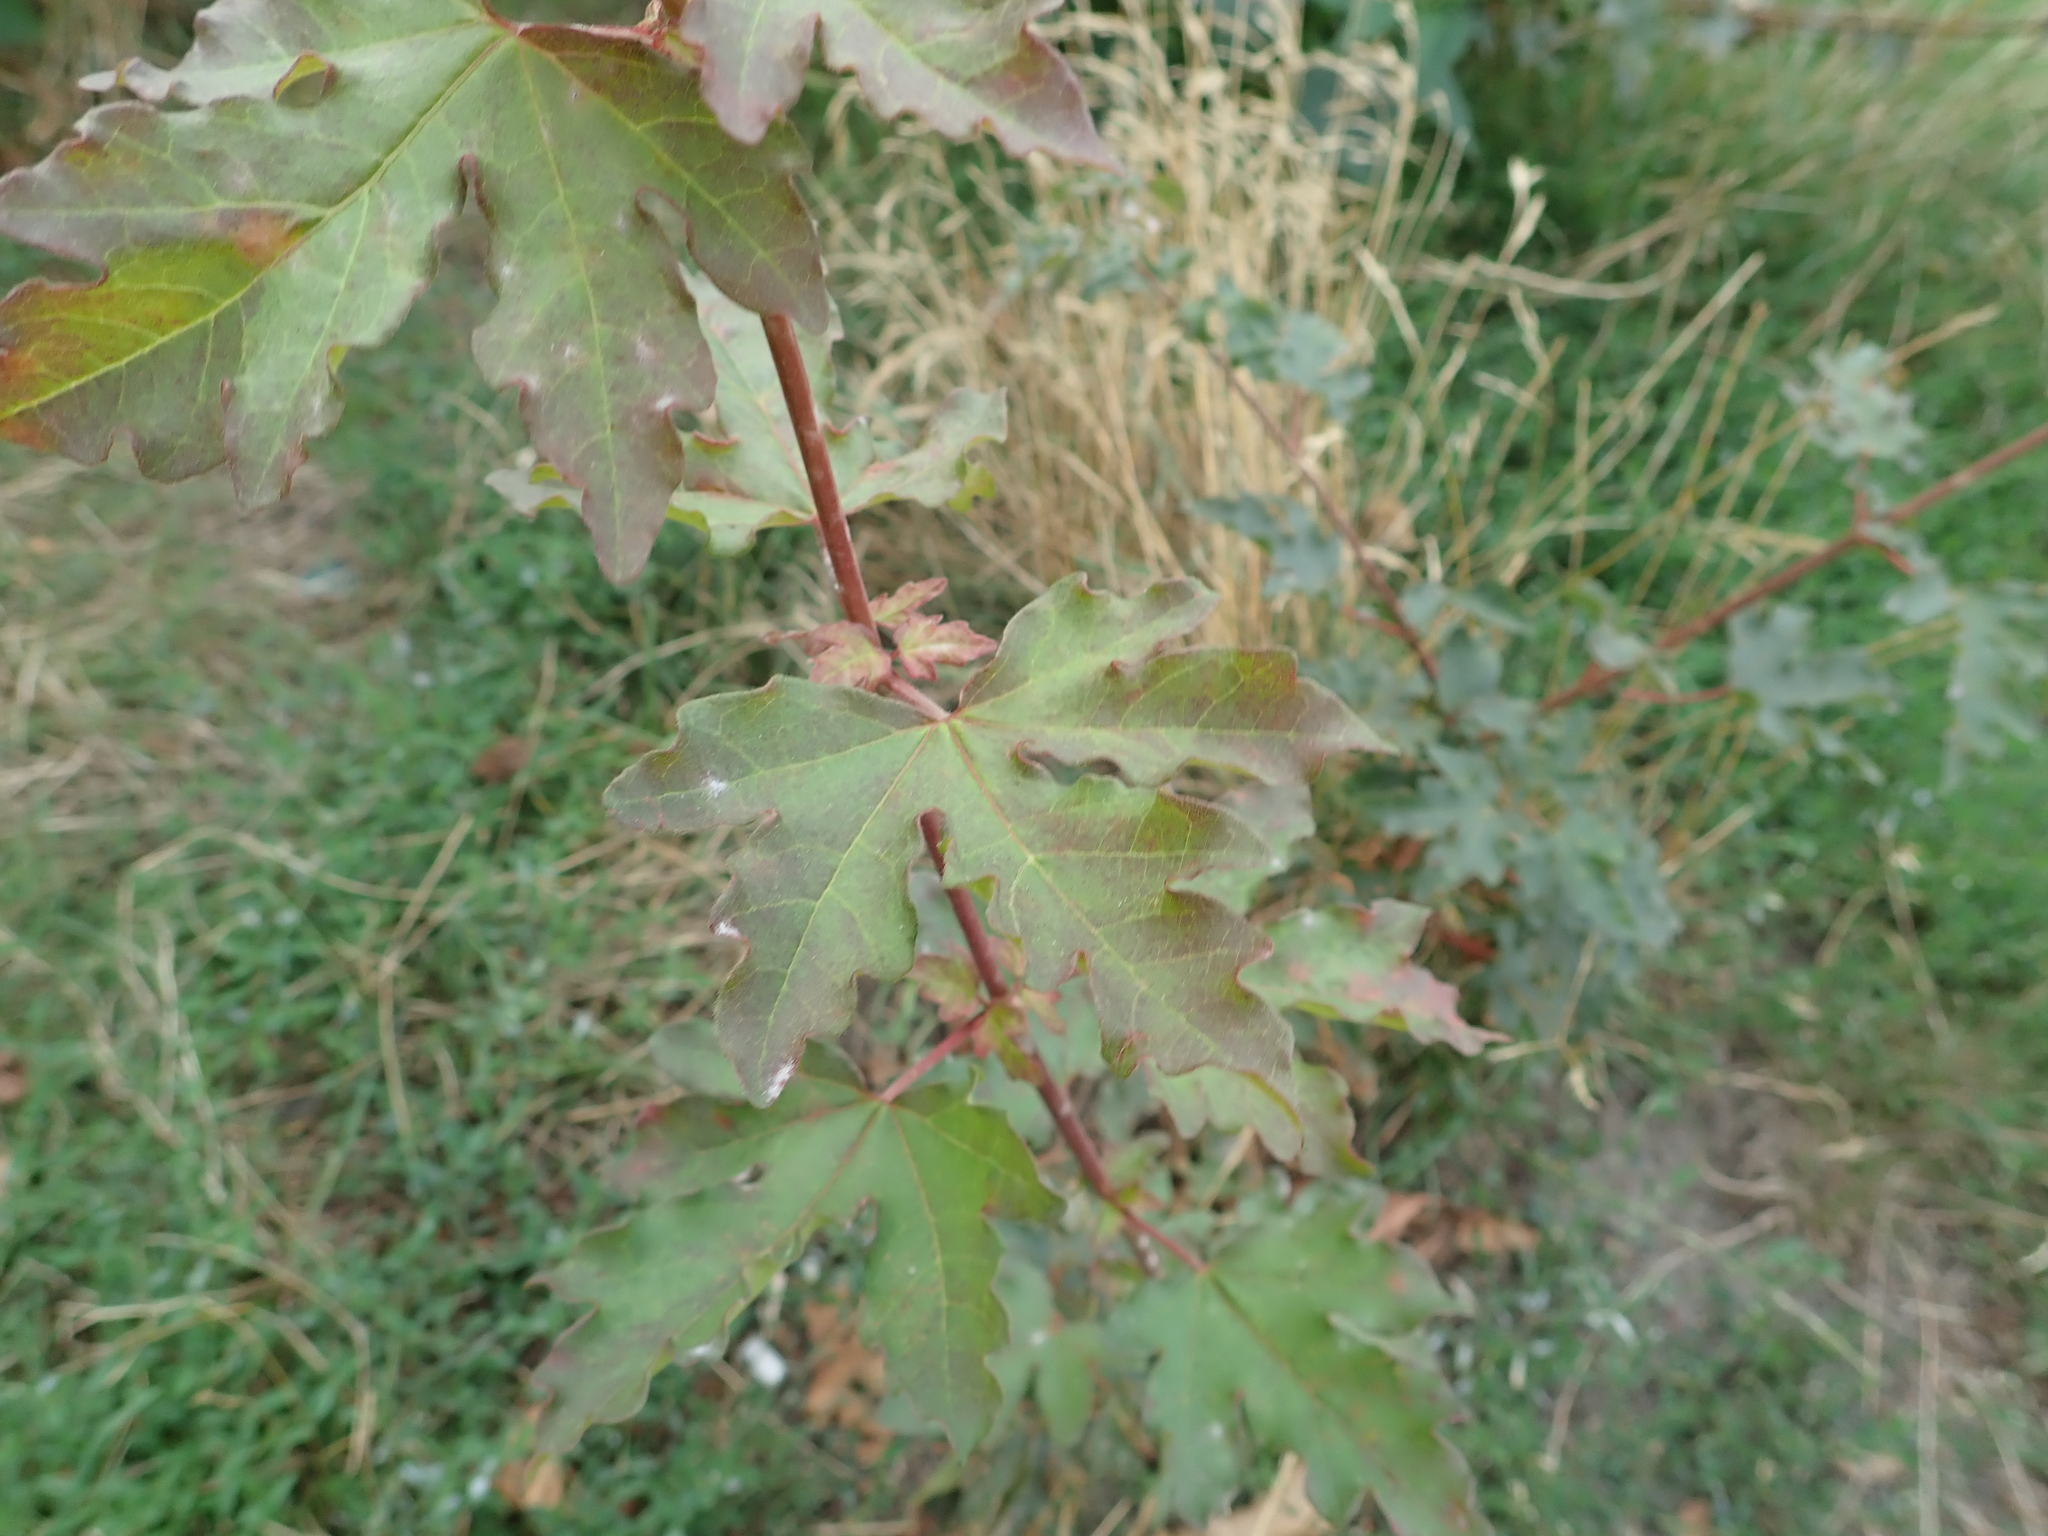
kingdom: Plantae
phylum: Tracheophyta
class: Magnoliopsida
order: Sapindales
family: Sapindaceae
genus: Acer
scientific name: Acer campestre
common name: Field maple
